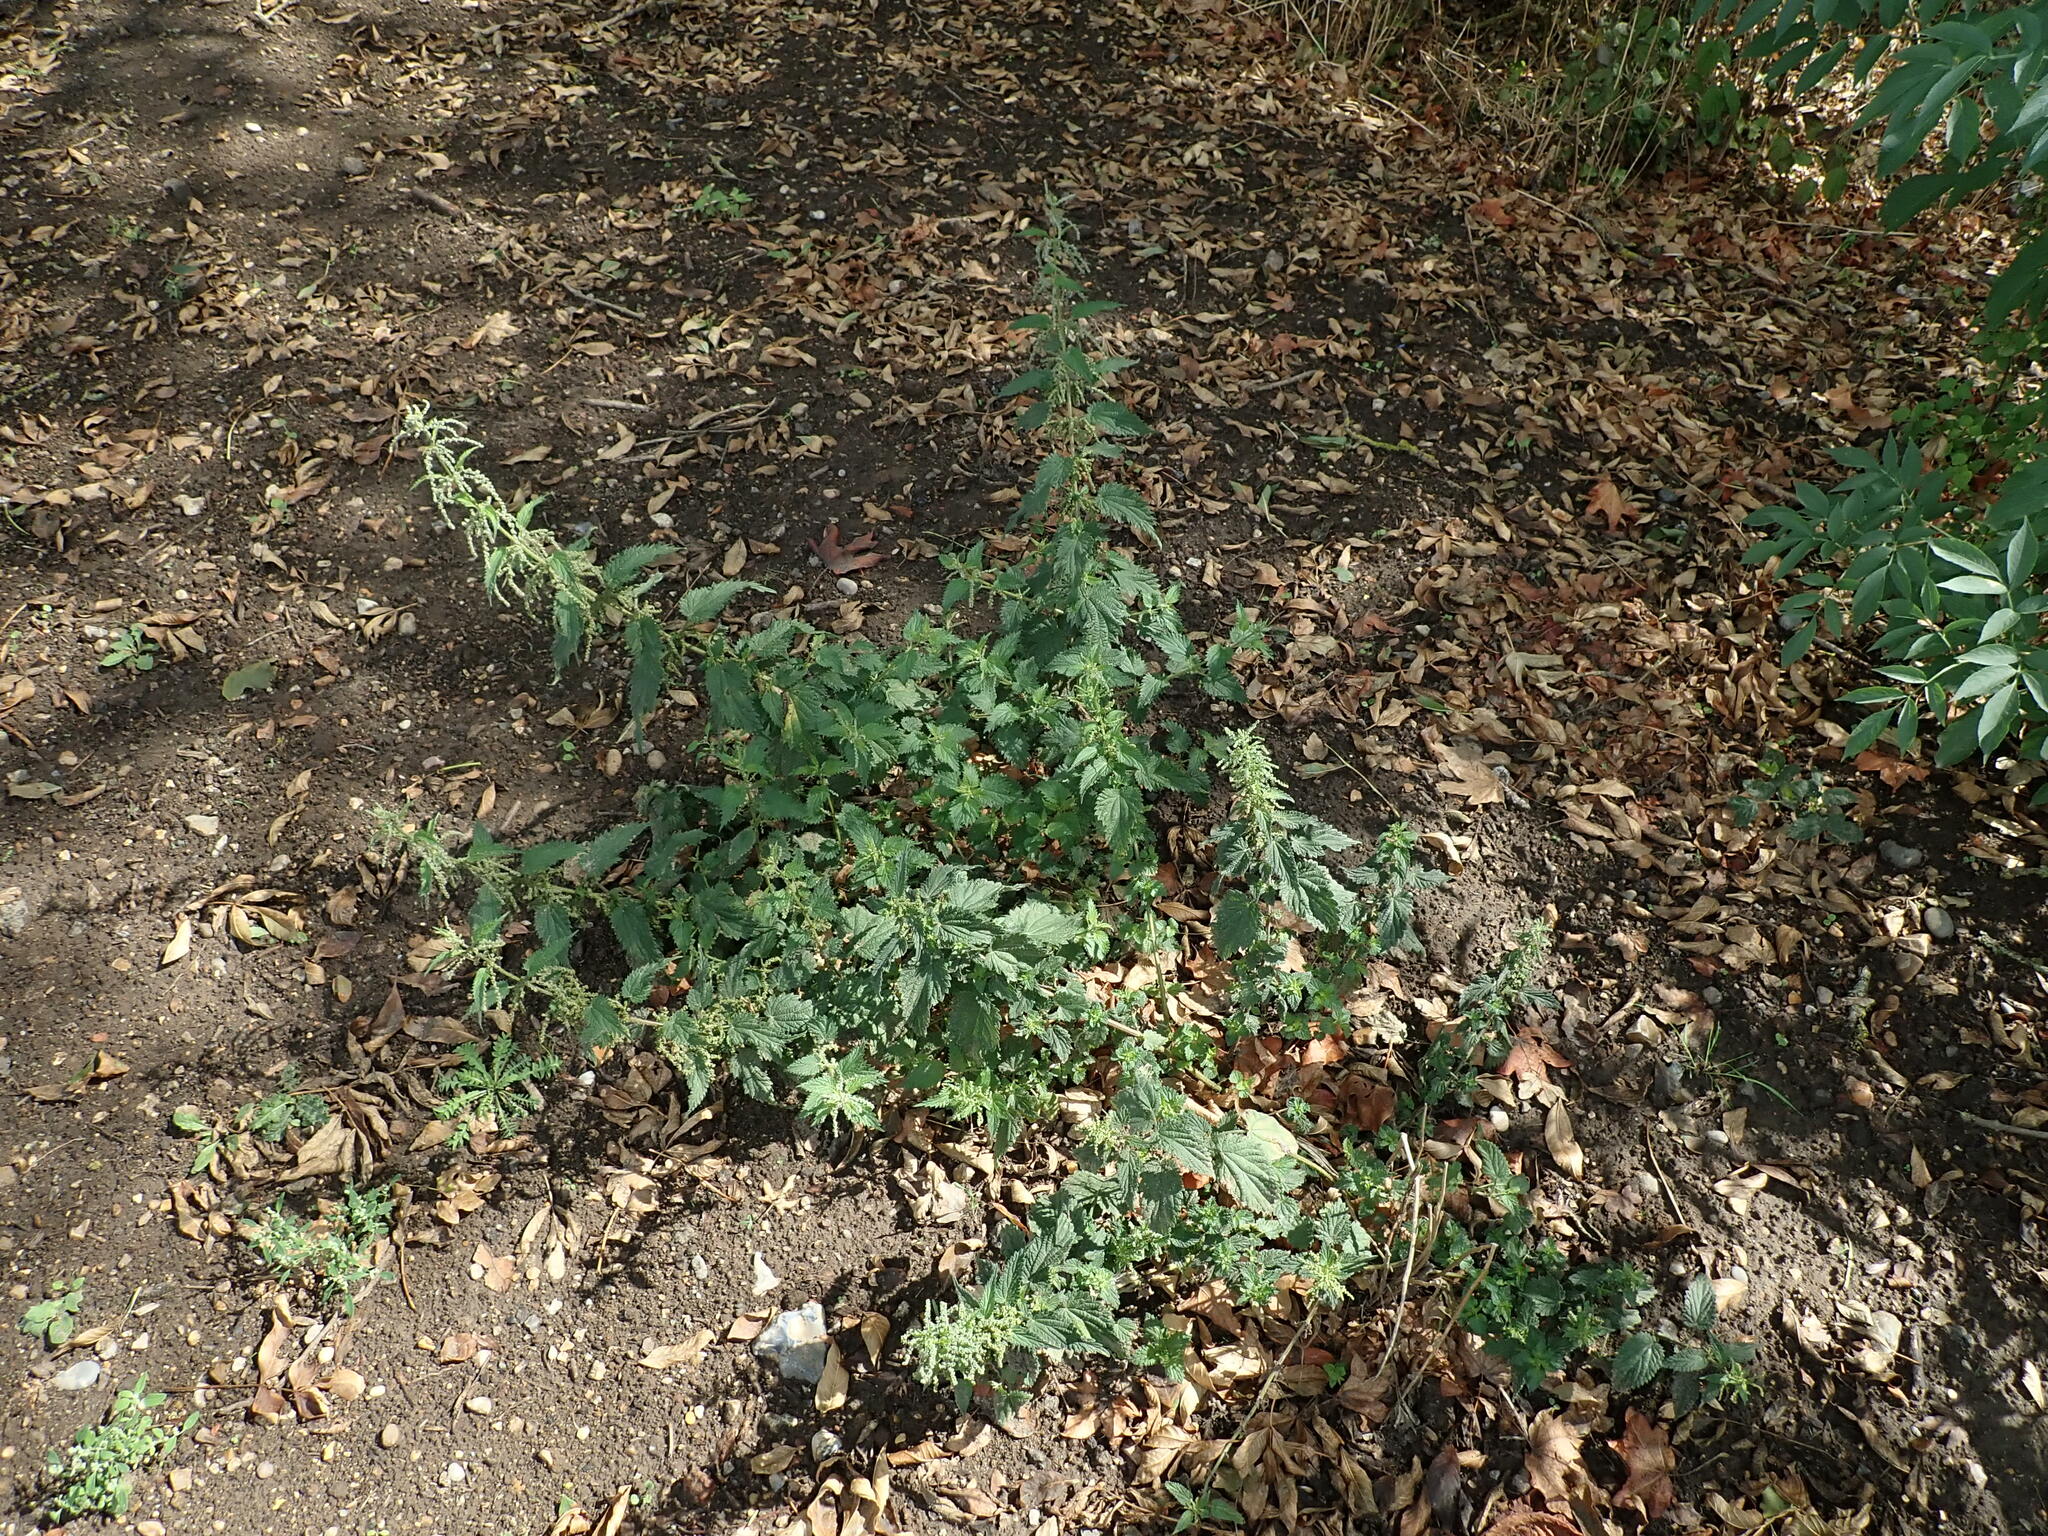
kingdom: Plantae
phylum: Tracheophyta
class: Magnoliopsida
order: Rosales
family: Urticaceae
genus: Urtica
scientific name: Urtica dioica
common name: Common nettle
